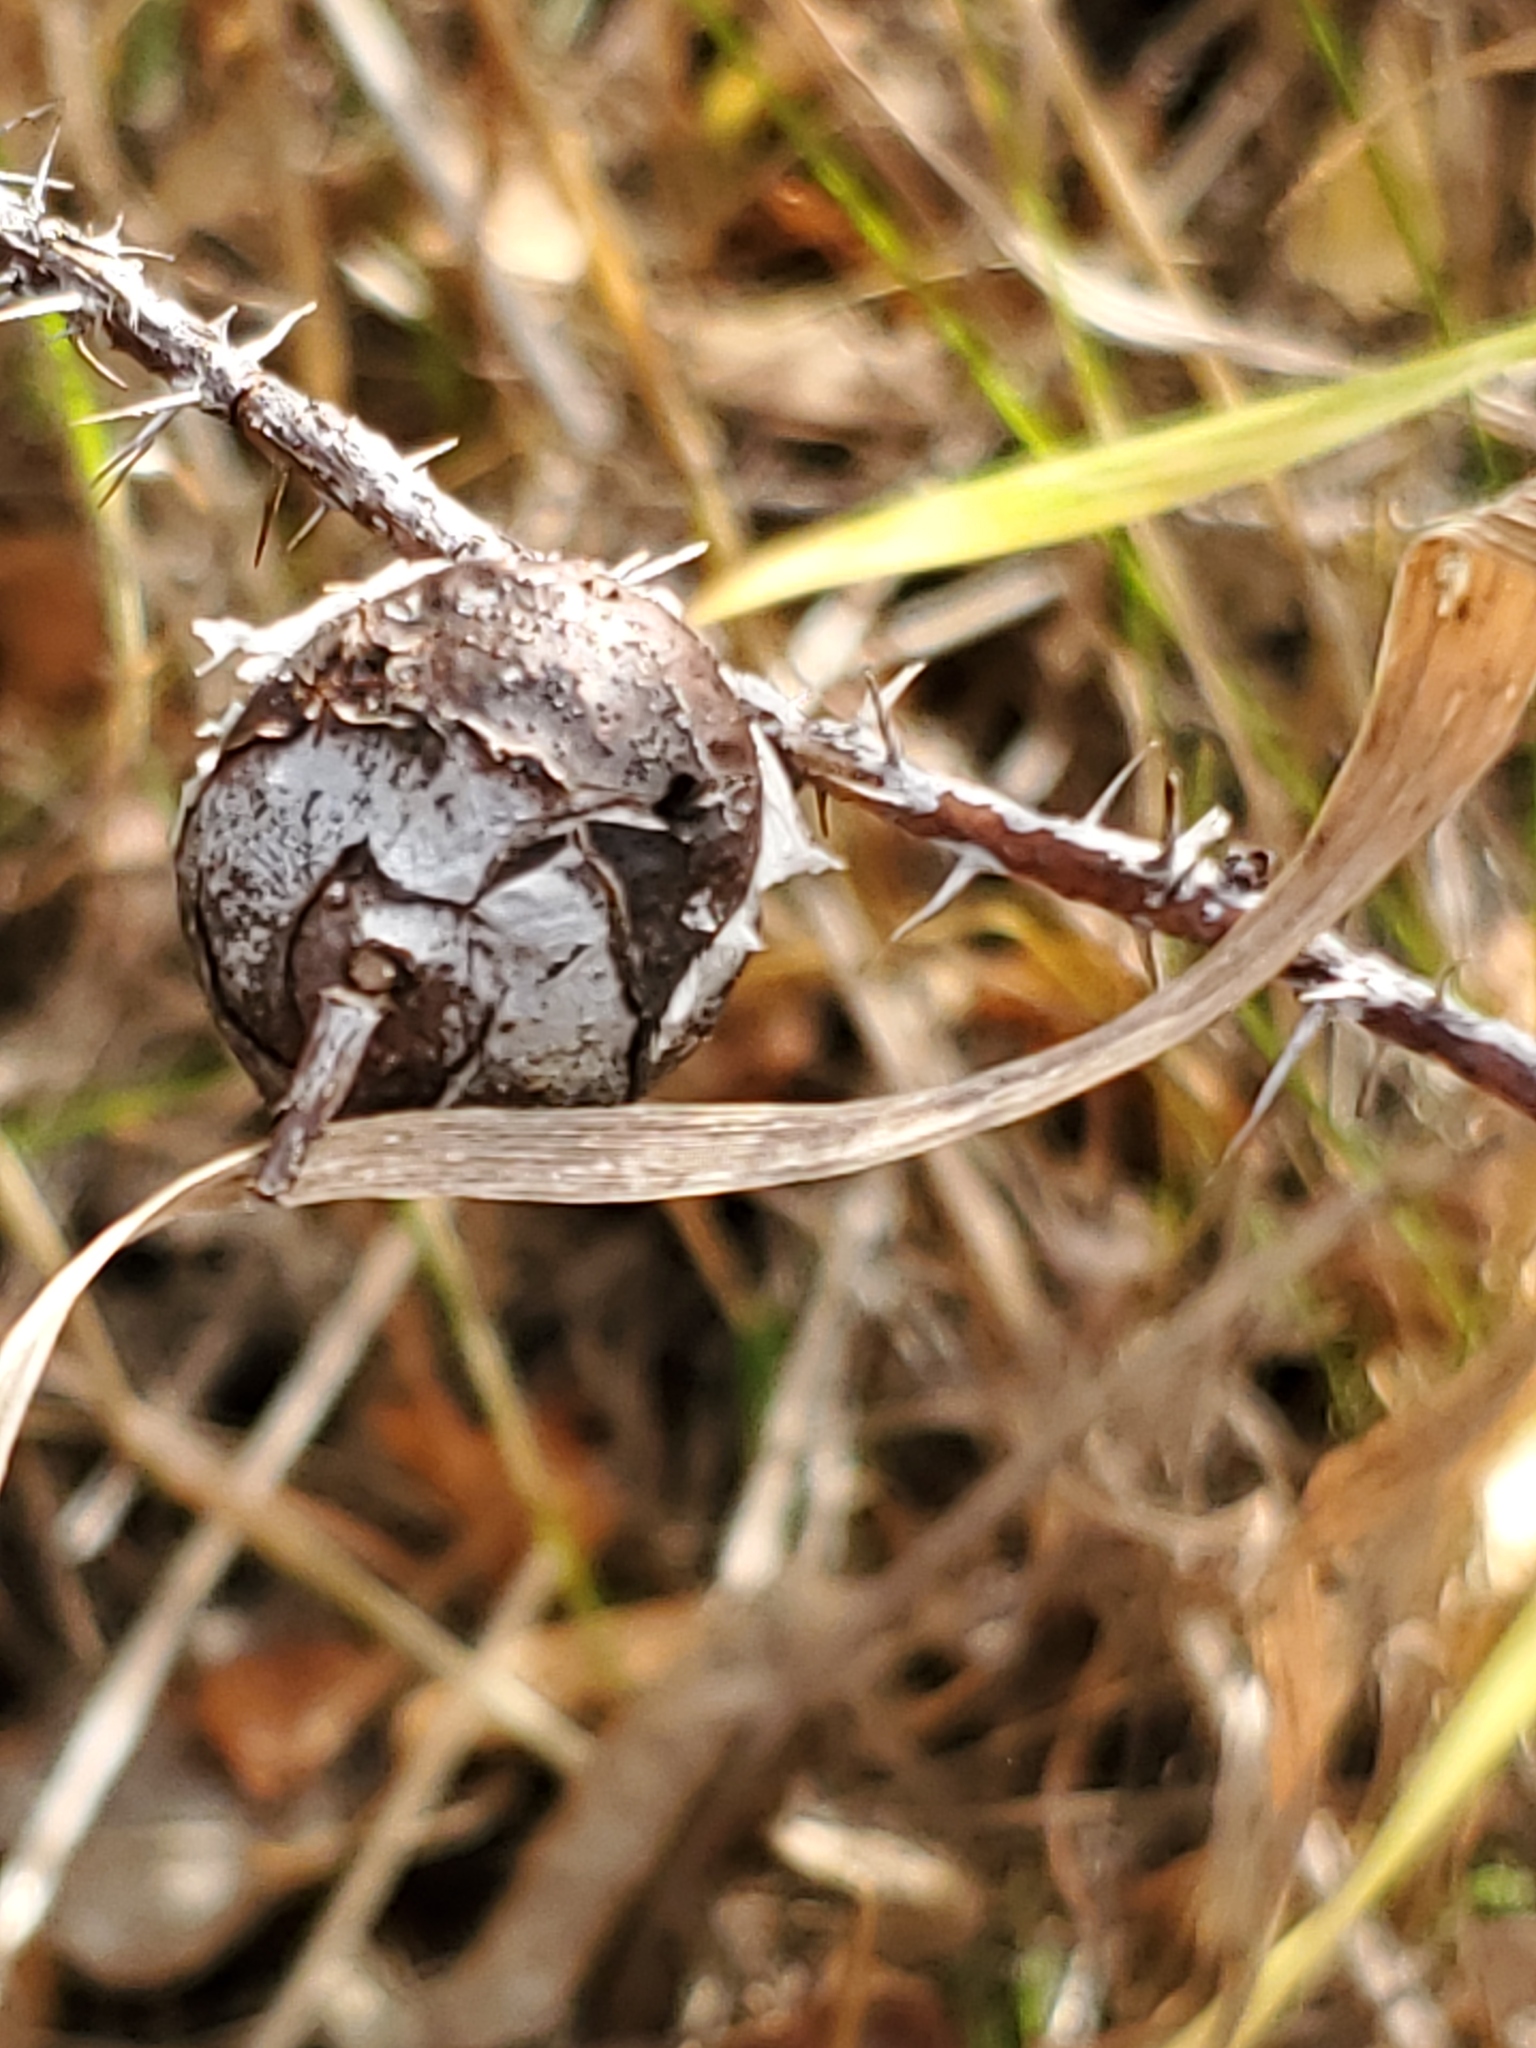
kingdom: Animalia
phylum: Arthropoda
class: Insecta
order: Hymenoptera
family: Cynipidae
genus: Diplolepis
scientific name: Diplolepis spinosa
